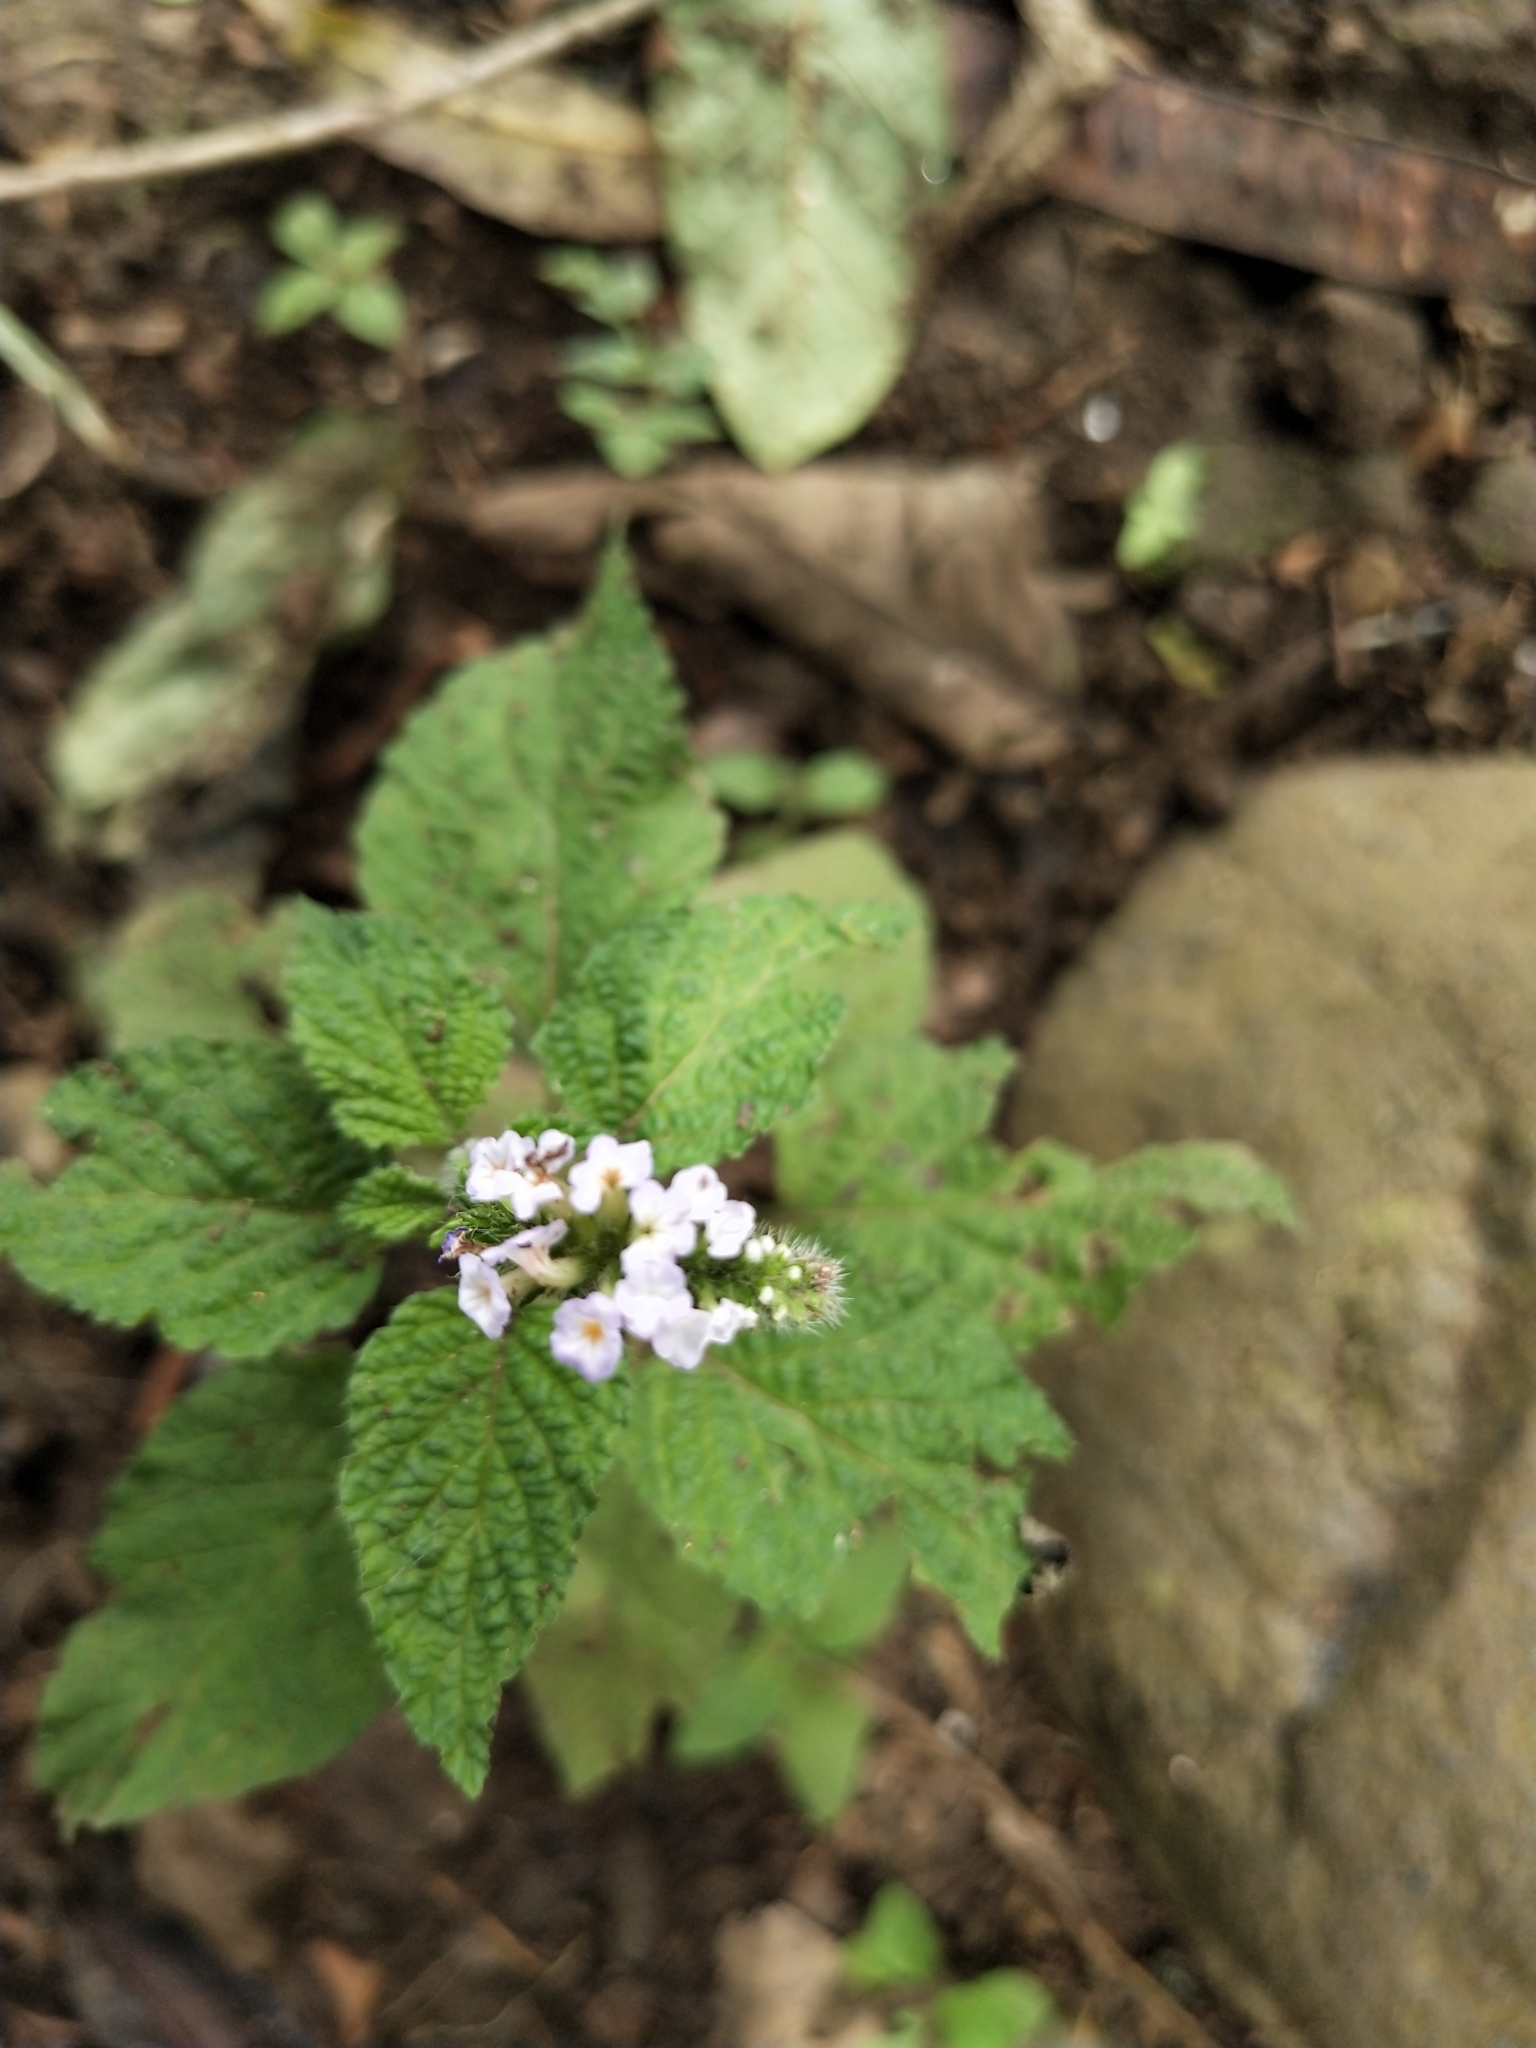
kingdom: Plantae
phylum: Tracheophyta
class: Magnoliopsida
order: Boraginales
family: Heliotropiaceae
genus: Heliotropium
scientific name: Heliotropium indicum
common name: Indian heliotrope
